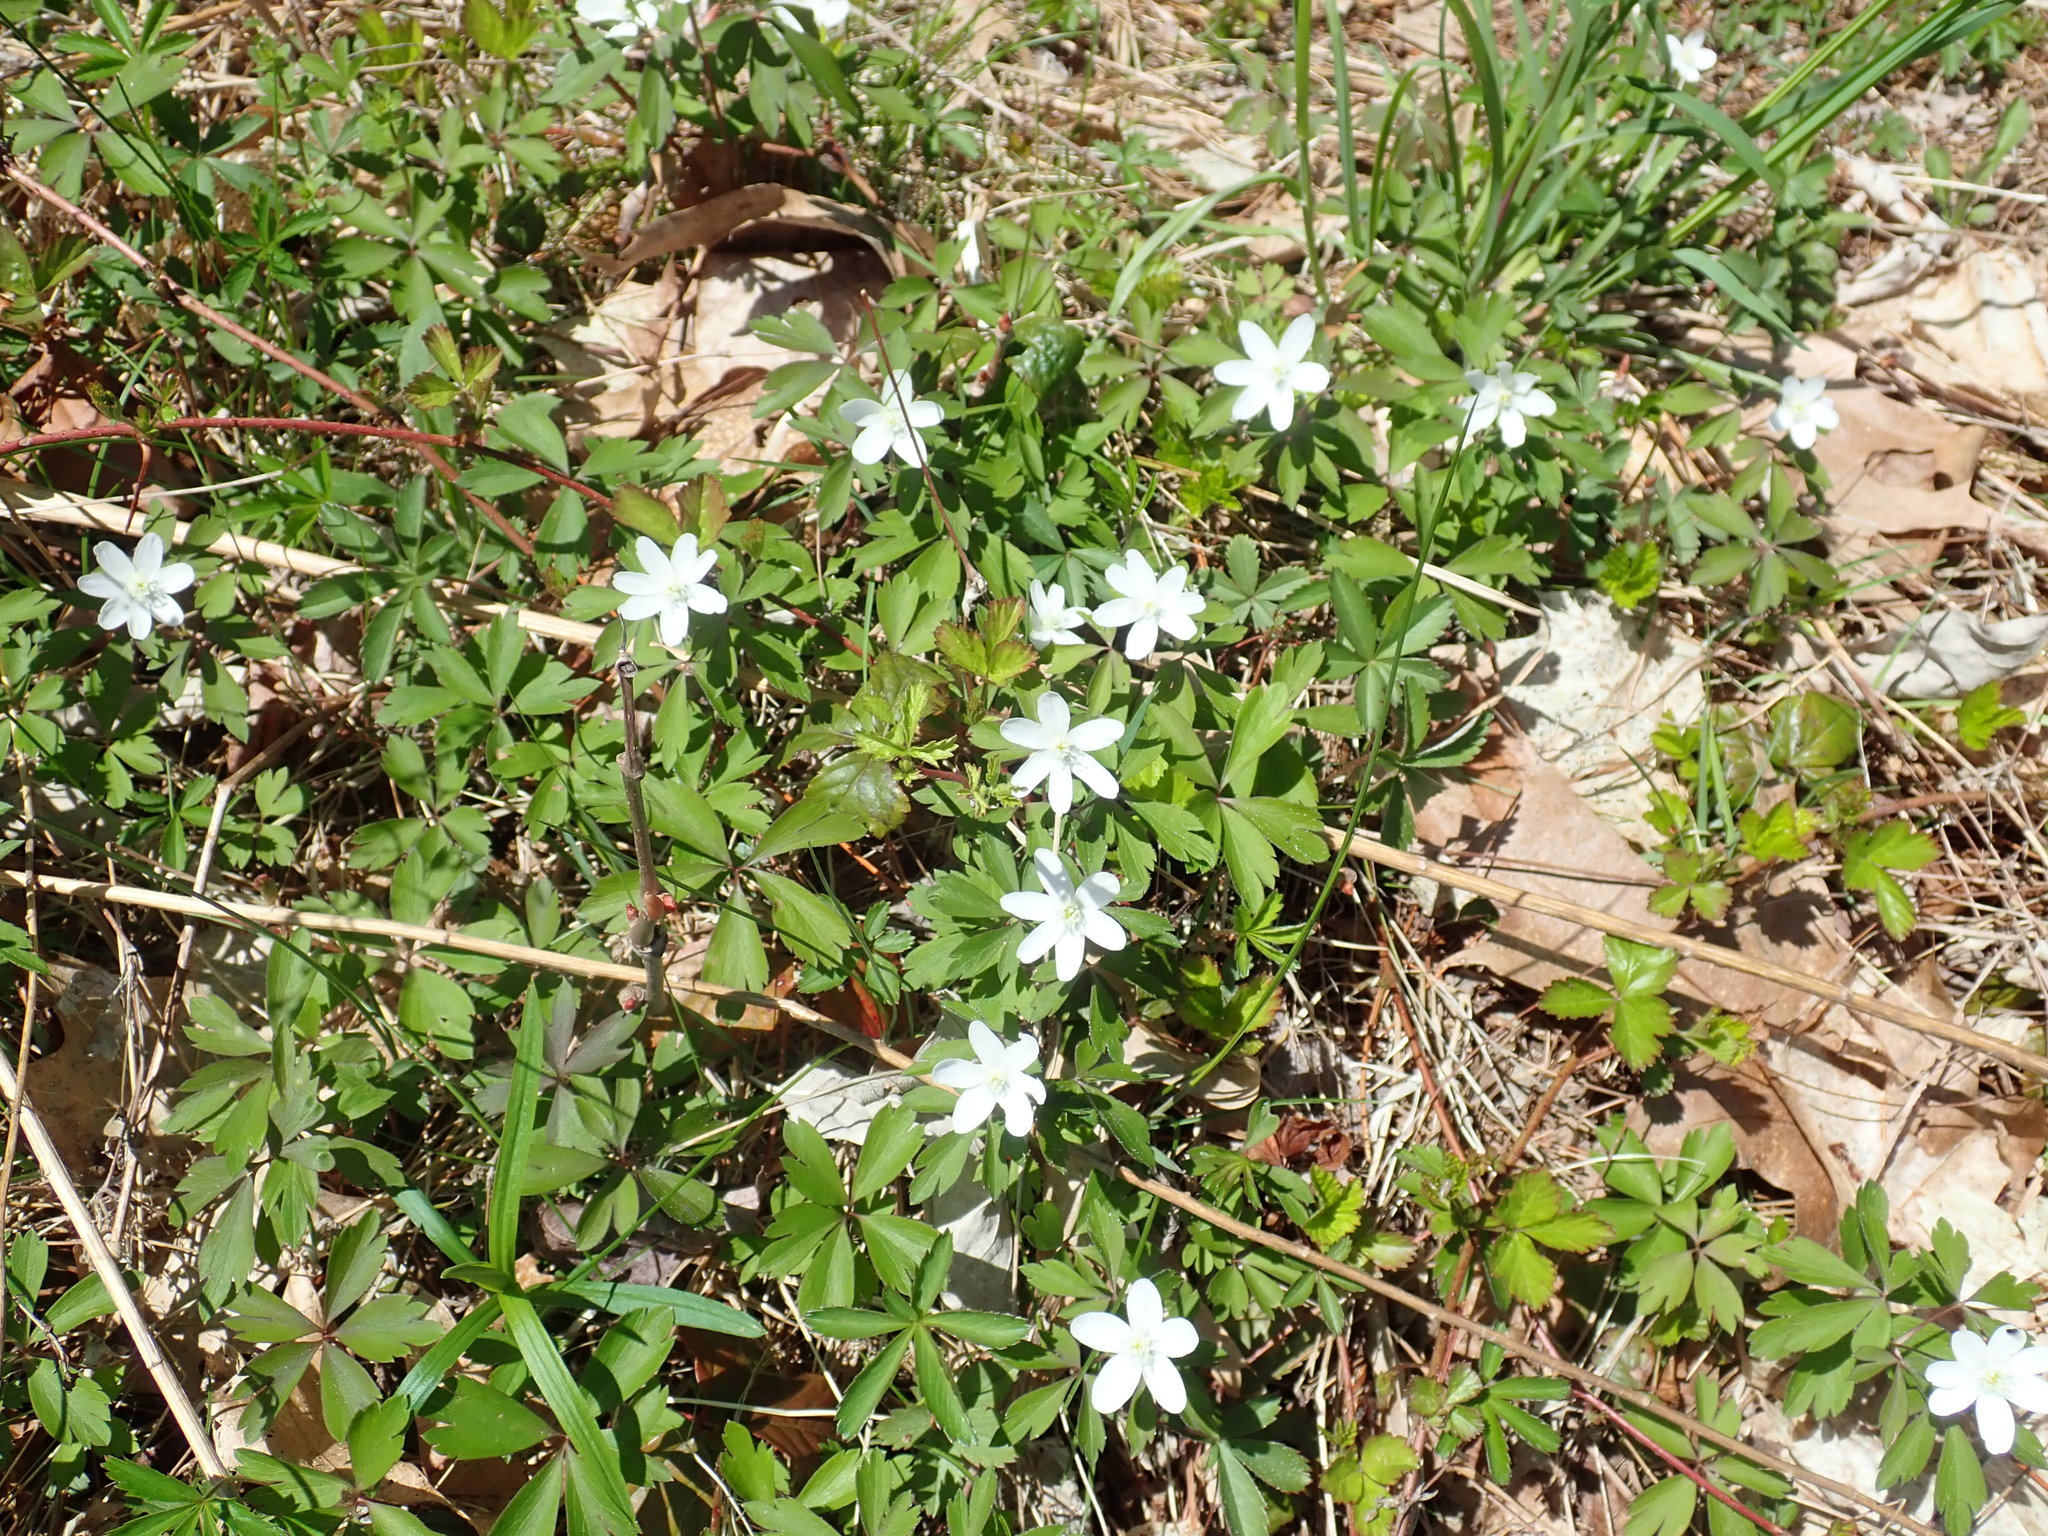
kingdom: Plantae
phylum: Tracheophyta
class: Magnoliopsida
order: Ranunculales
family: Ranunculaceae
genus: Anemone
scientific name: Anemone quinquefolia
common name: Wood anemone
